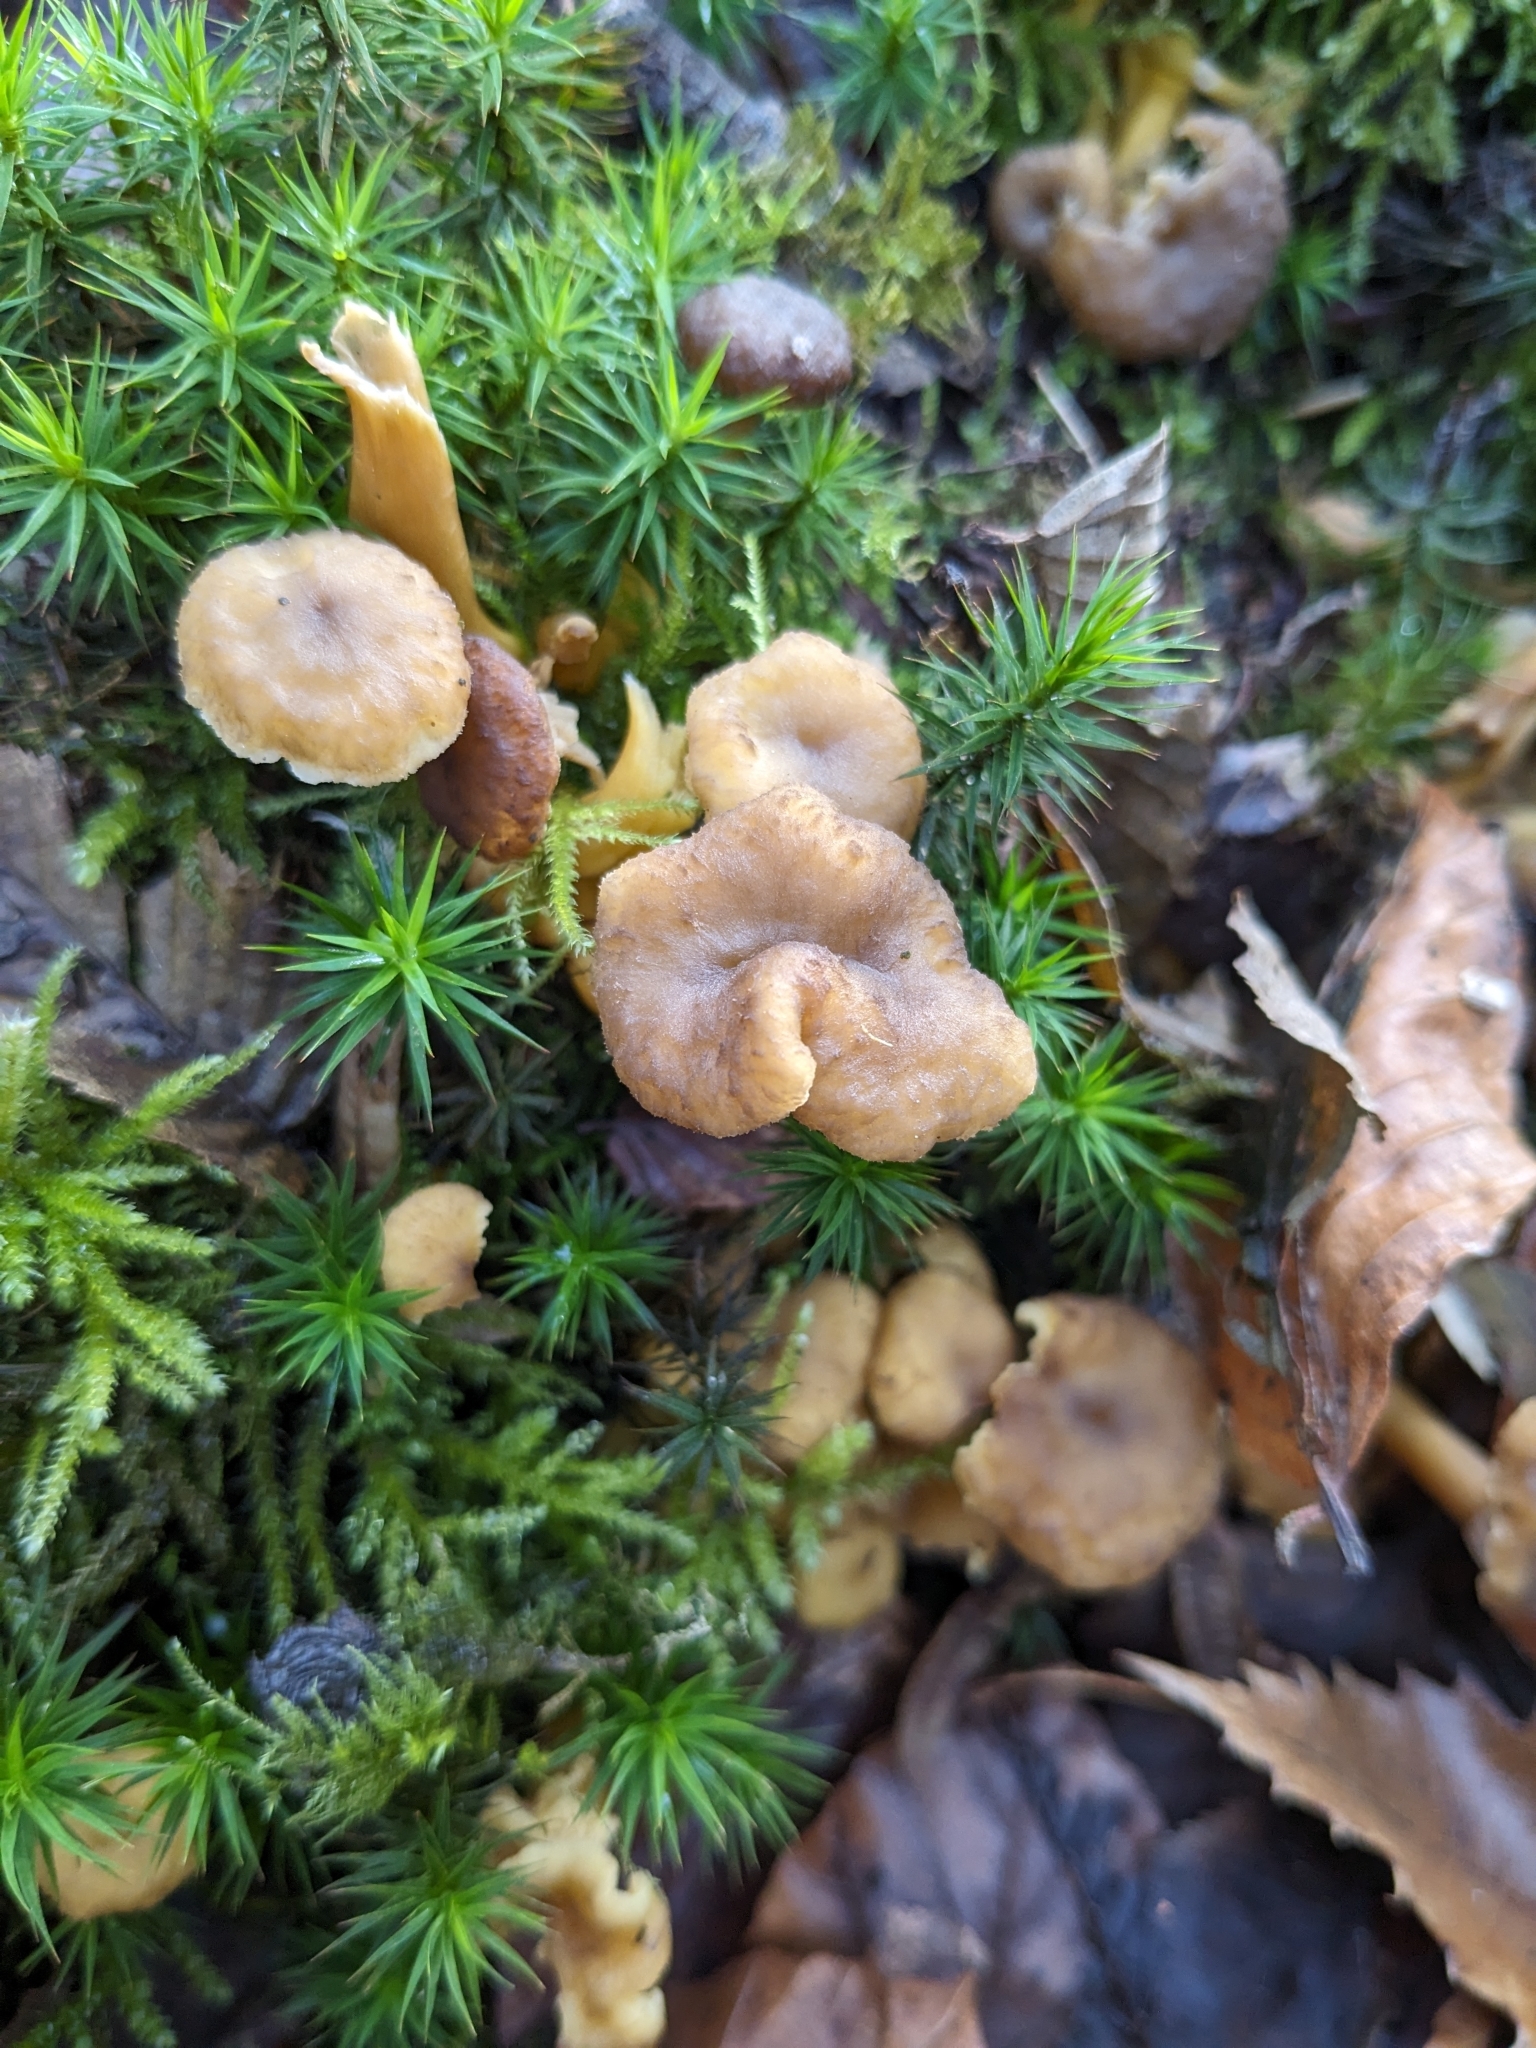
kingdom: Fungi
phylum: Basidiomycota
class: Agaricomycetes
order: Cantharellales
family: Hydnaceae
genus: Craterellus
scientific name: Craterellus tubaeformis
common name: Yellowfoot
